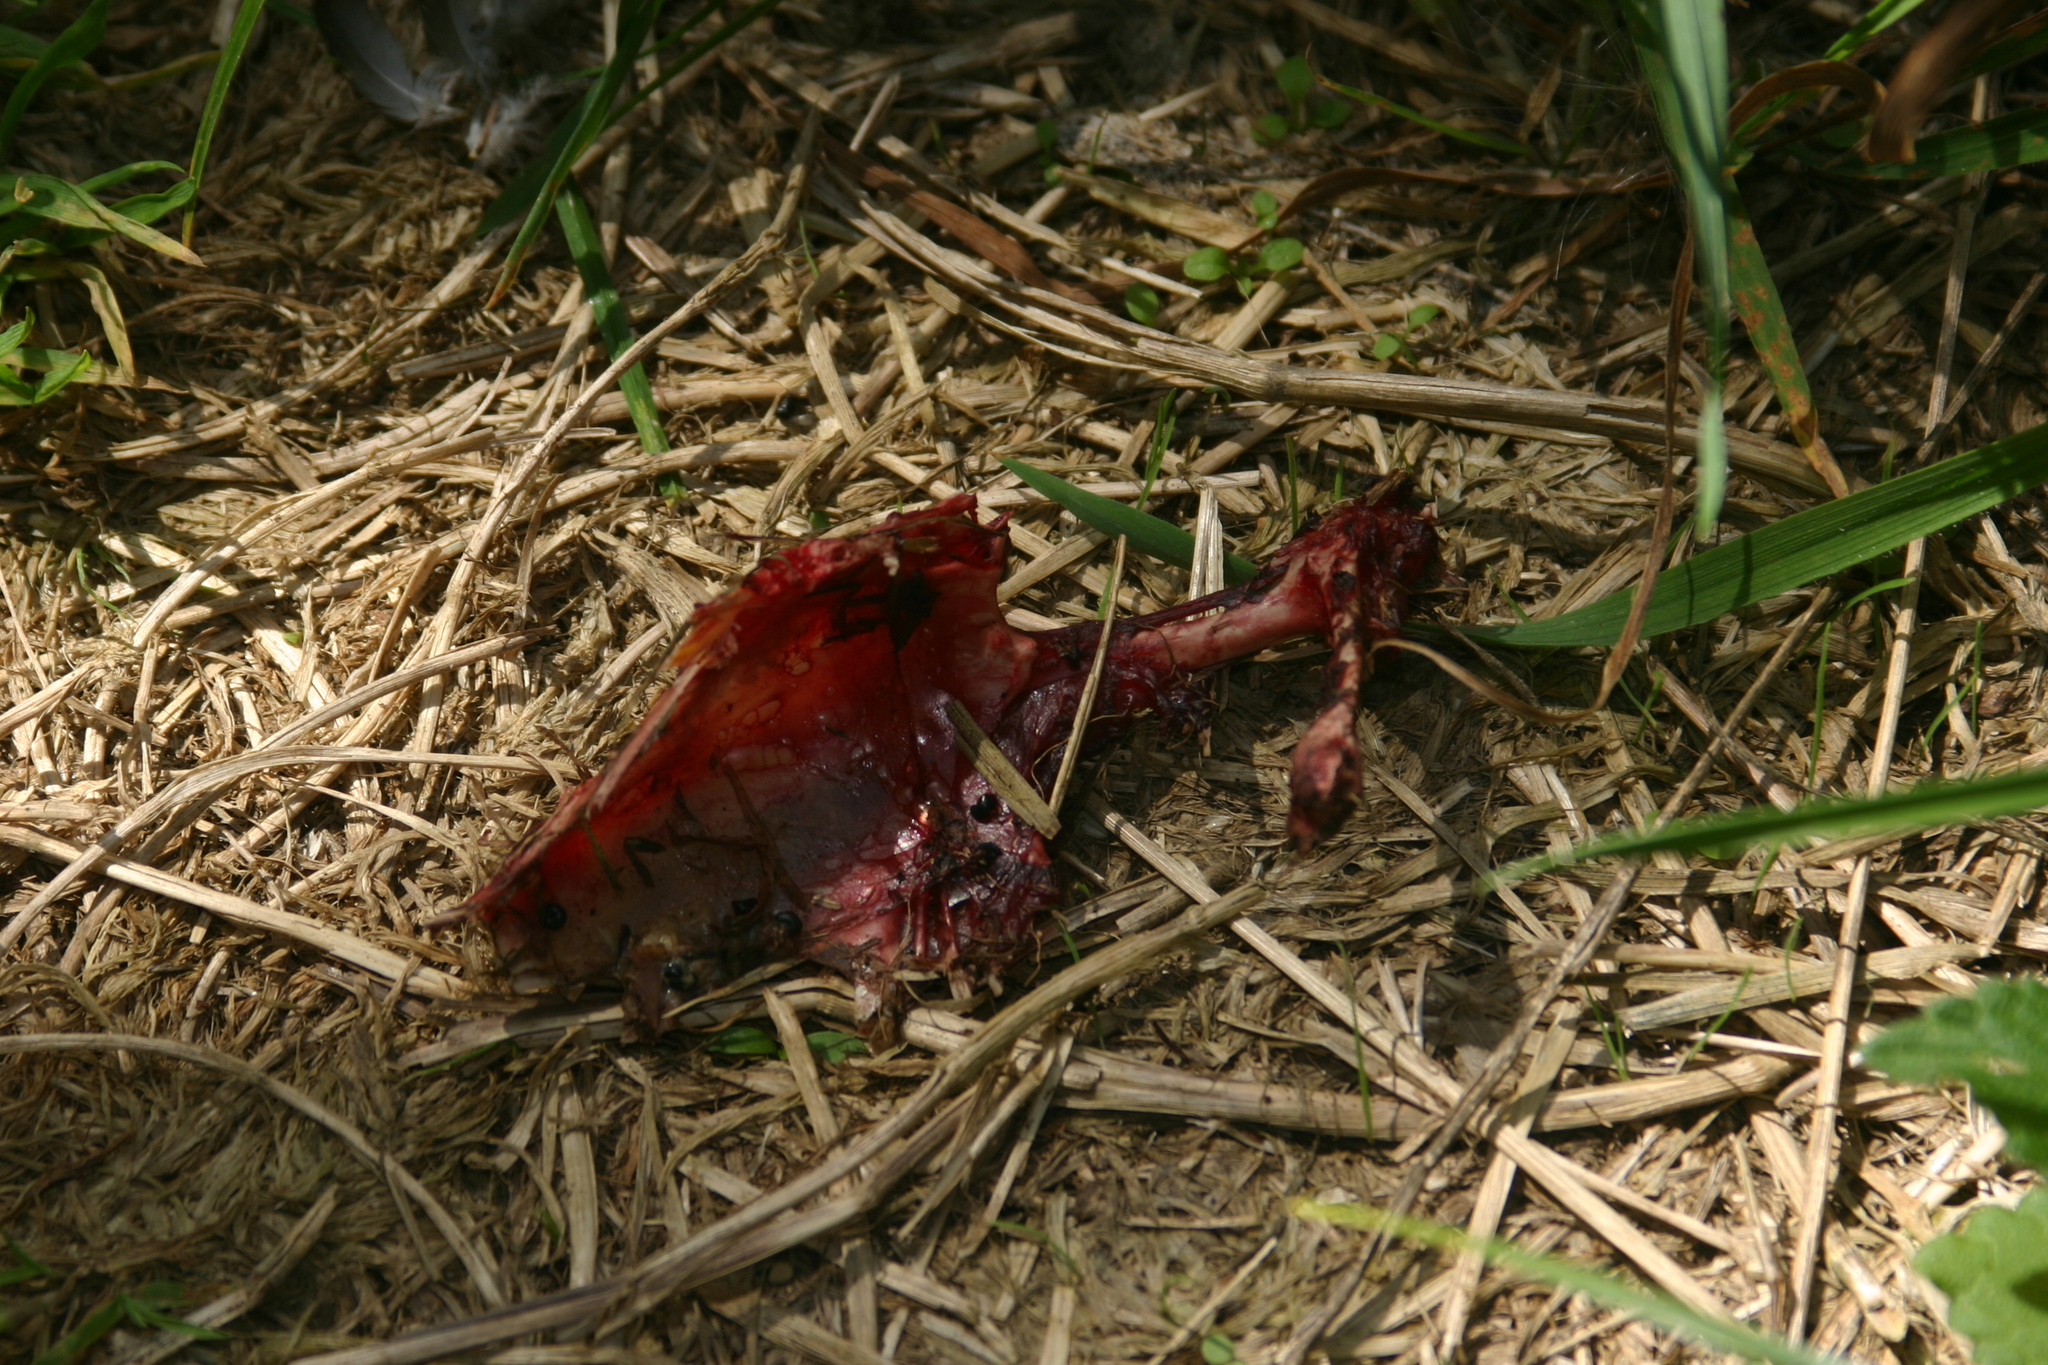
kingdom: Animalia
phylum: Chordata
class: Aves
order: Columbiformes
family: Columbidae
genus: Hemiphaga
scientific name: Hemiphaga novaeseelandiae
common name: New zealand pigeon
